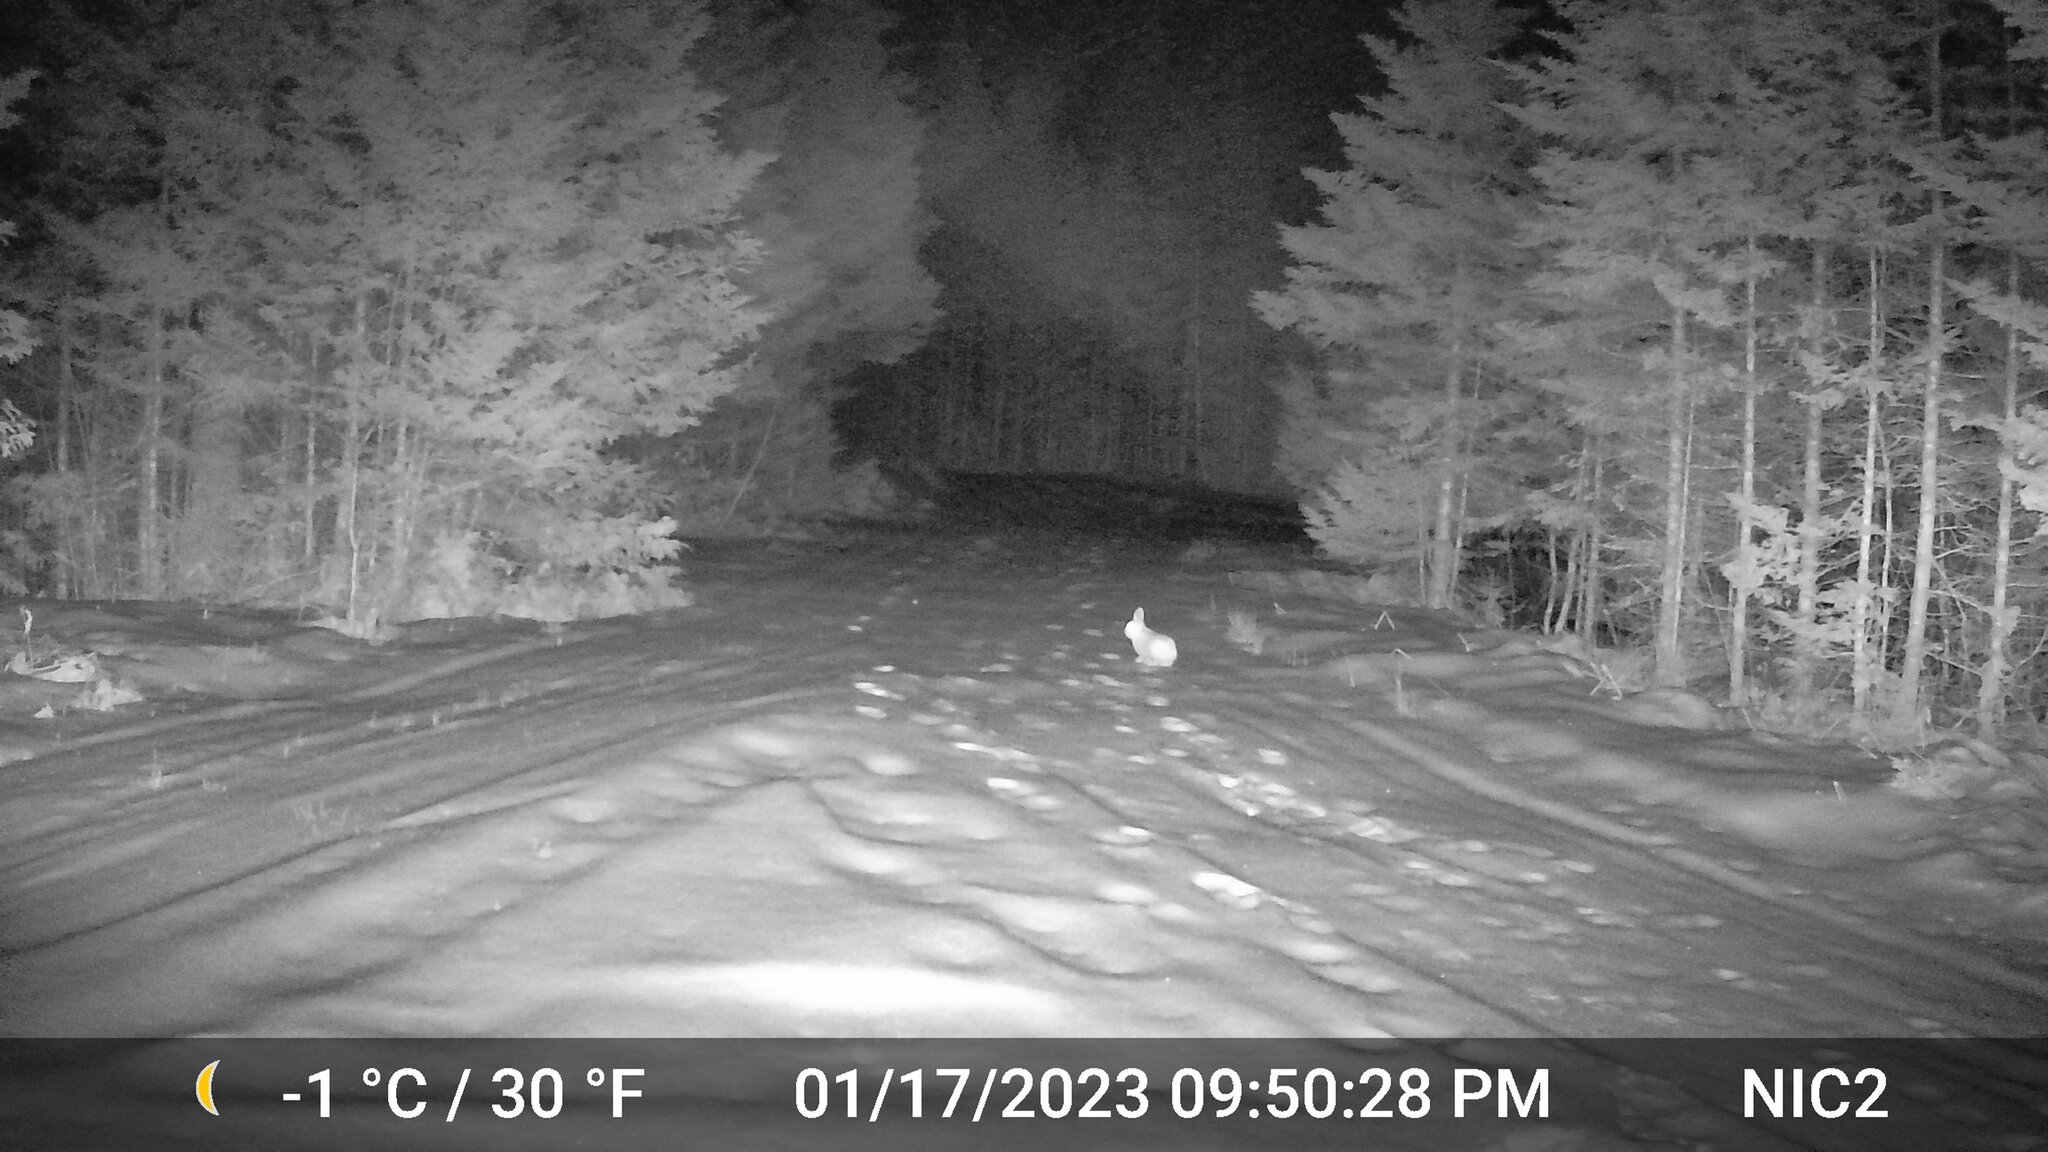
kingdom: Animalia
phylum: Chordata
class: Mammalia
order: Lagomorpha
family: Leporidae
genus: Lepus
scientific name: Lepus americanus
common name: Snowshoe hare
